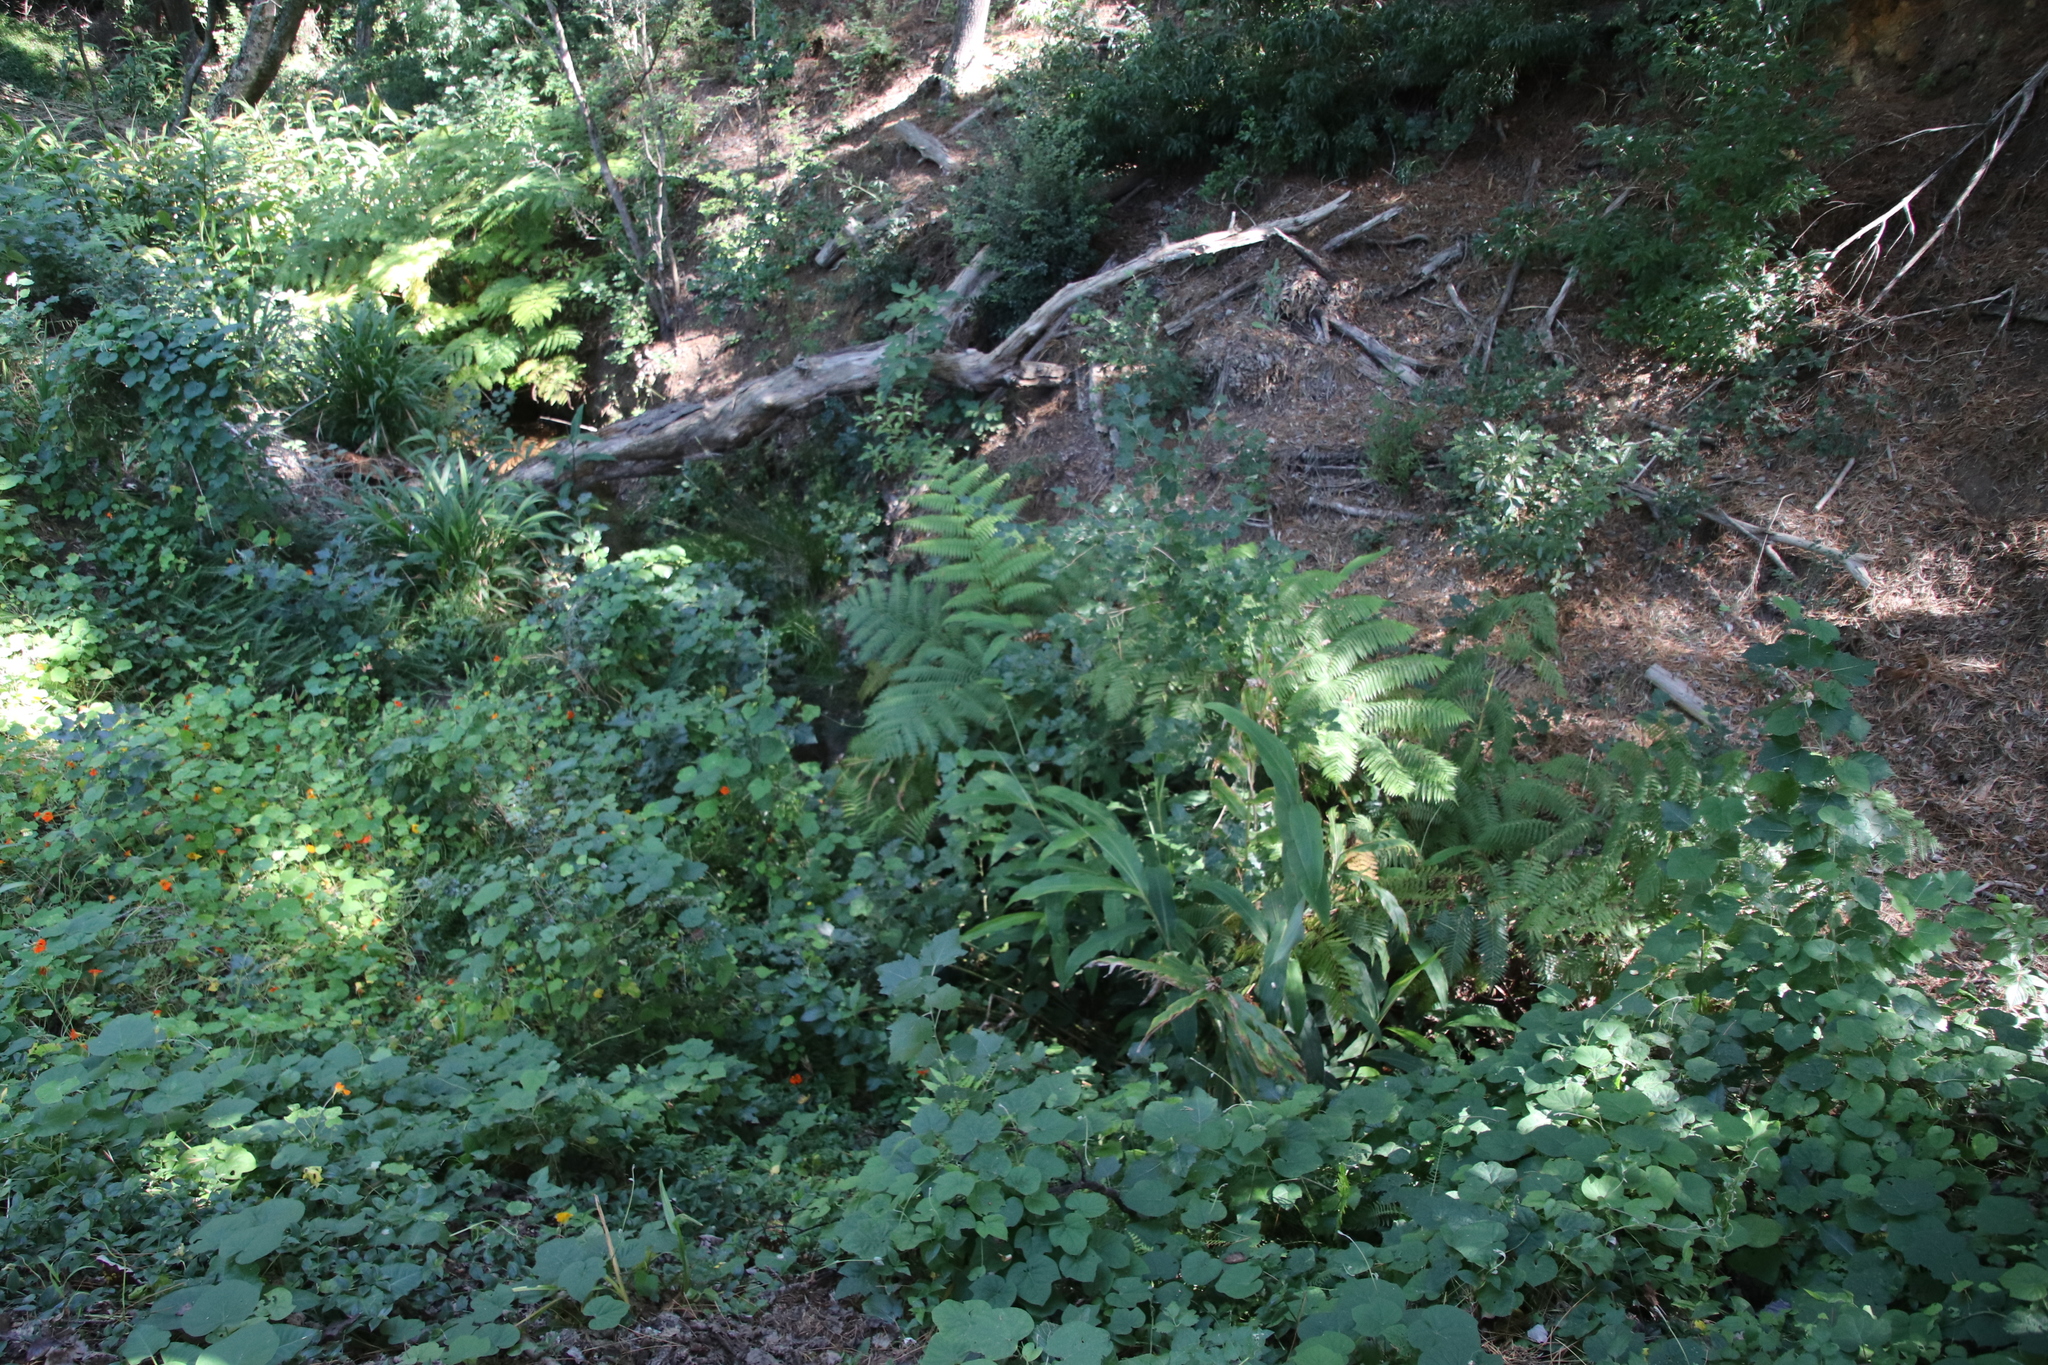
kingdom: Plantae
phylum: Tracheophyta
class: Polypodiopsida
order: Cyatheales
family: Cyatheaceae
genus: Sphaeropteris
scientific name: Sphaeropteris cooperi
